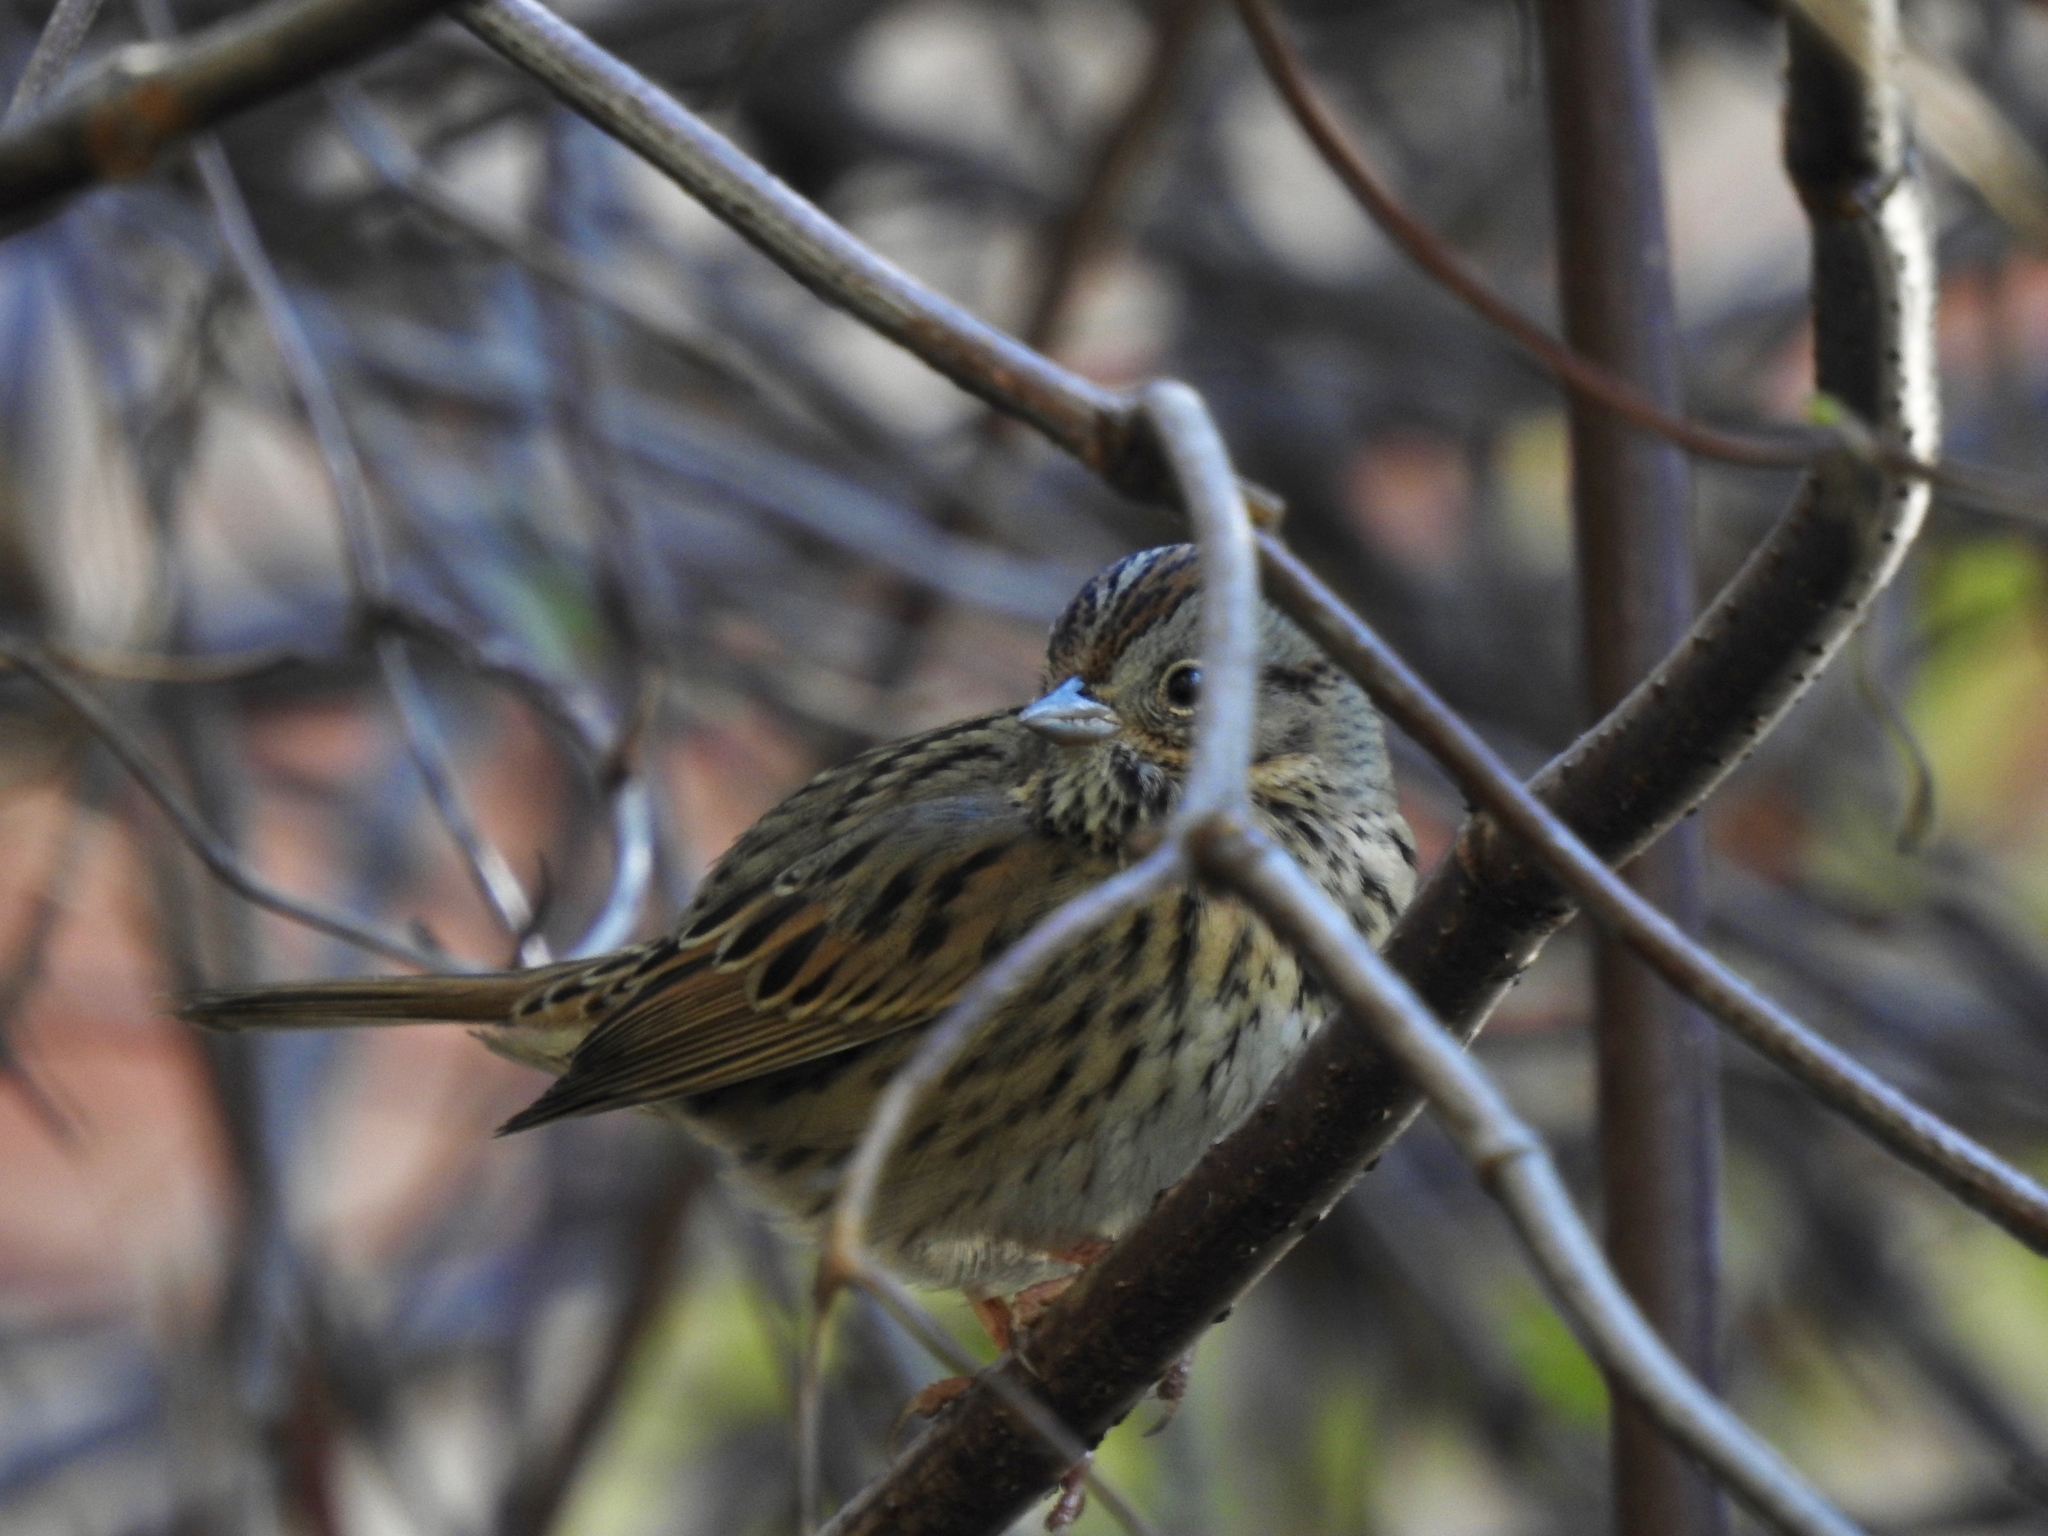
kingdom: Animalia
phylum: Chordata
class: Aves
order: Passeriformes
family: Passerellidae
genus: Melospiza
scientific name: Melospiza lincolnii
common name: Lincoln's sparrow
